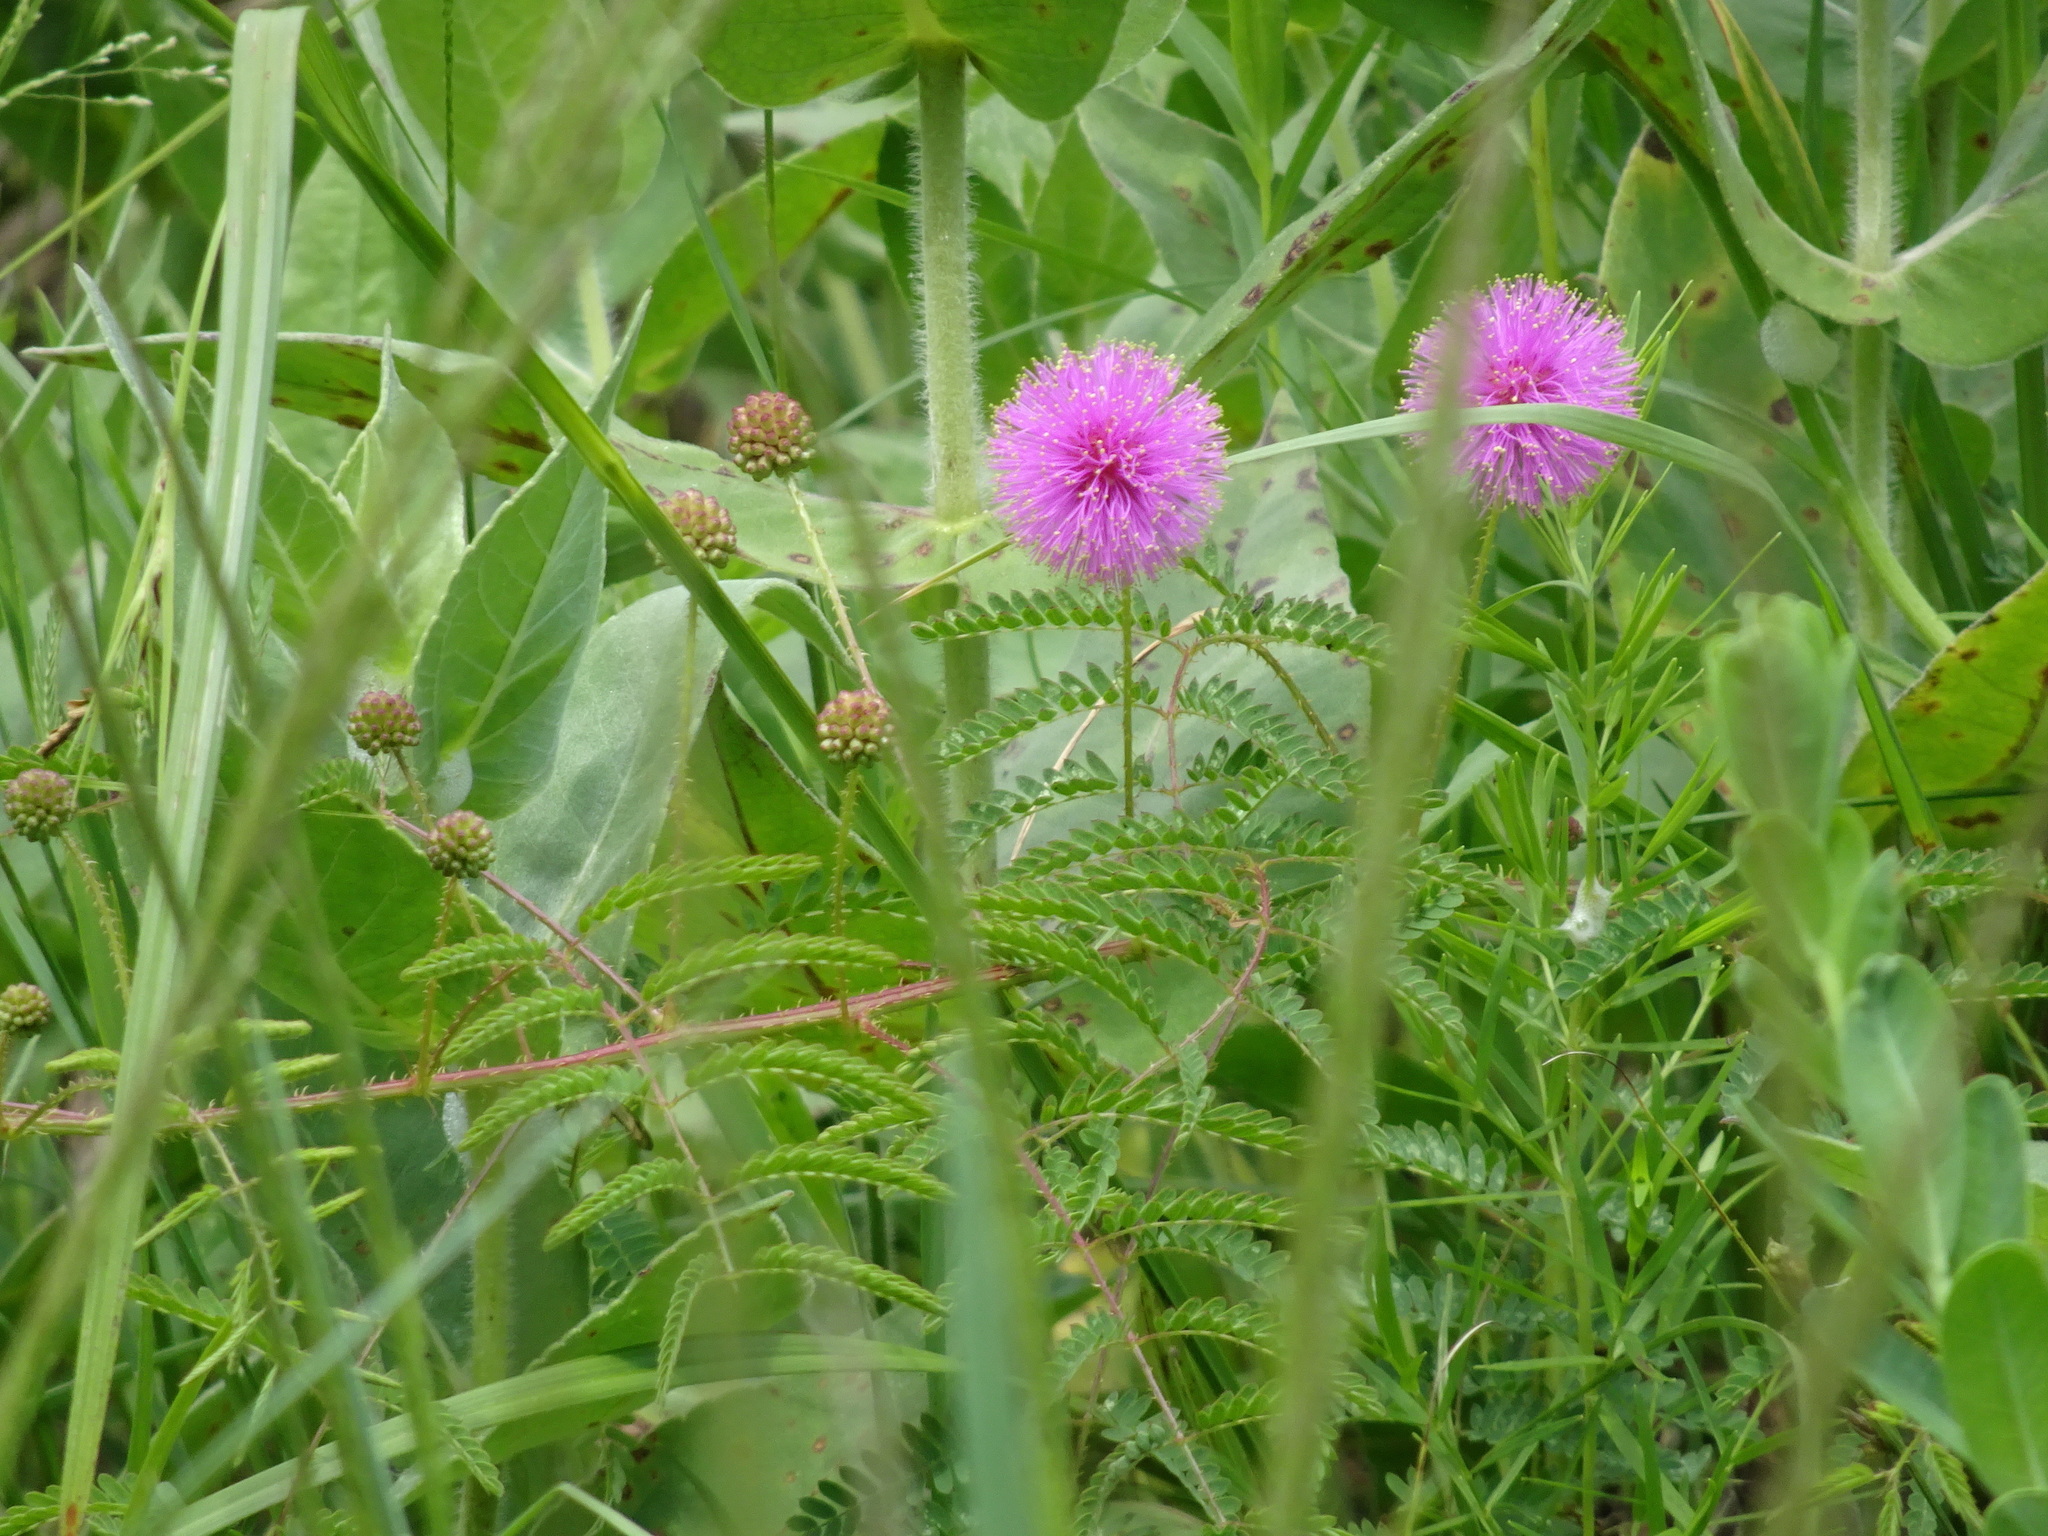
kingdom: Plantae
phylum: Tracheophyta
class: Magnoliopsida
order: Fabales
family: Fabaceae
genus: Mimosa
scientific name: Mimosa quadrivalvis
